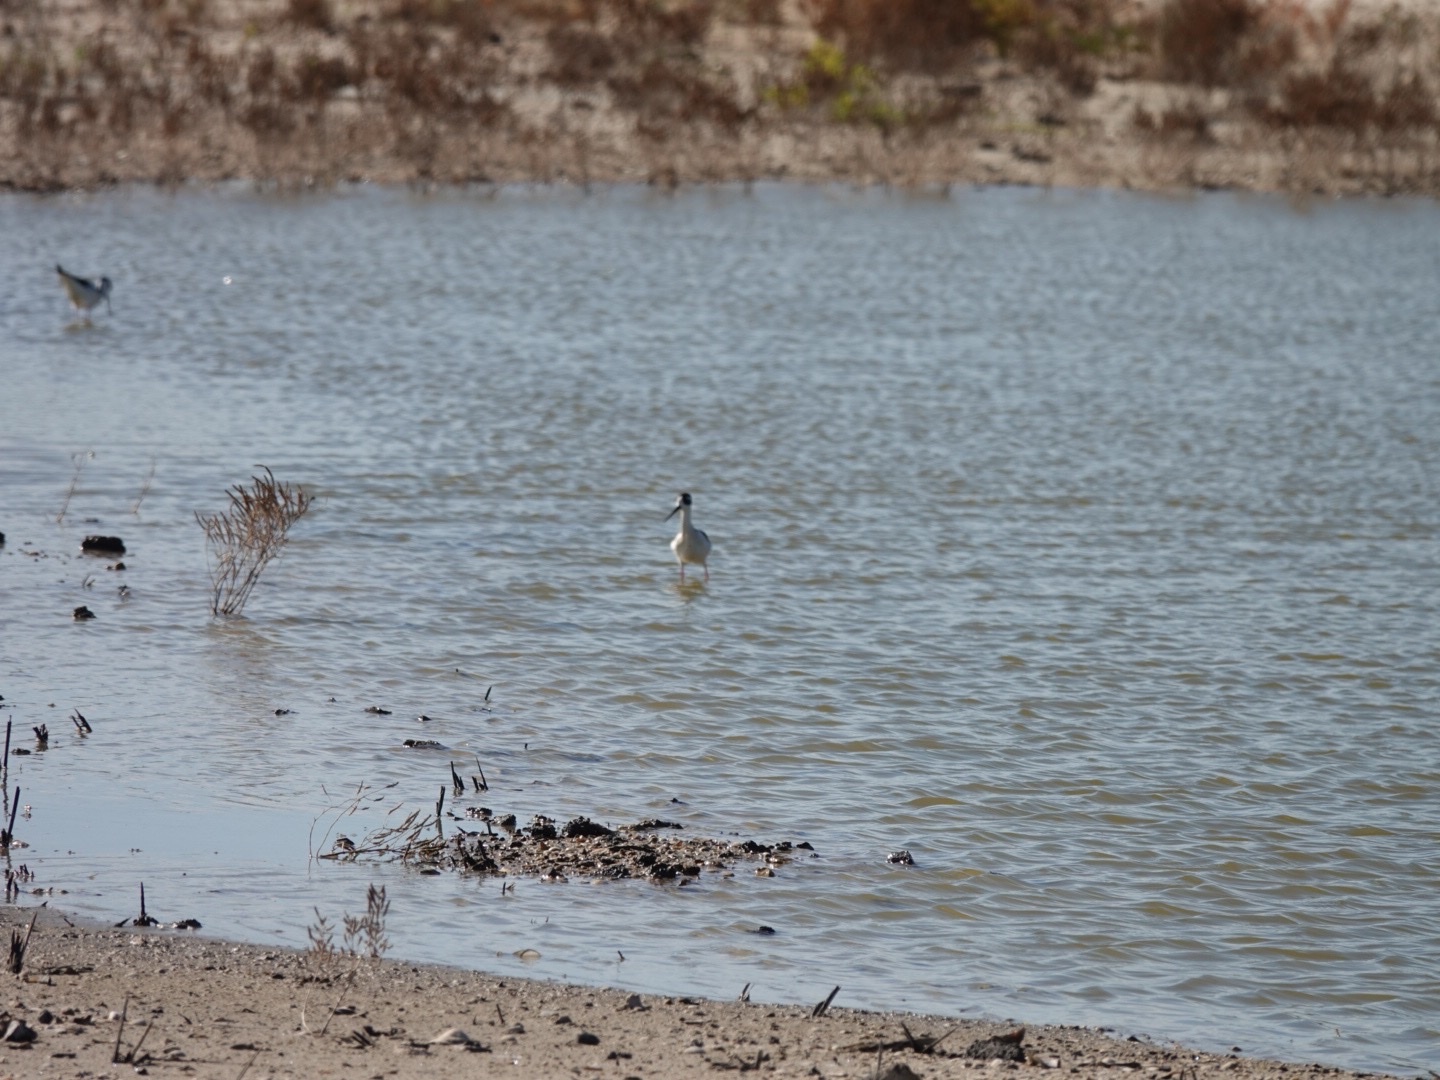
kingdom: Animalia
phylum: Chordata
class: Aves
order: Charadriiformes
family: Recurvirostridae
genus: Himantopus
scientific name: Himantopus mexicanus
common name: Black-necked stilt
